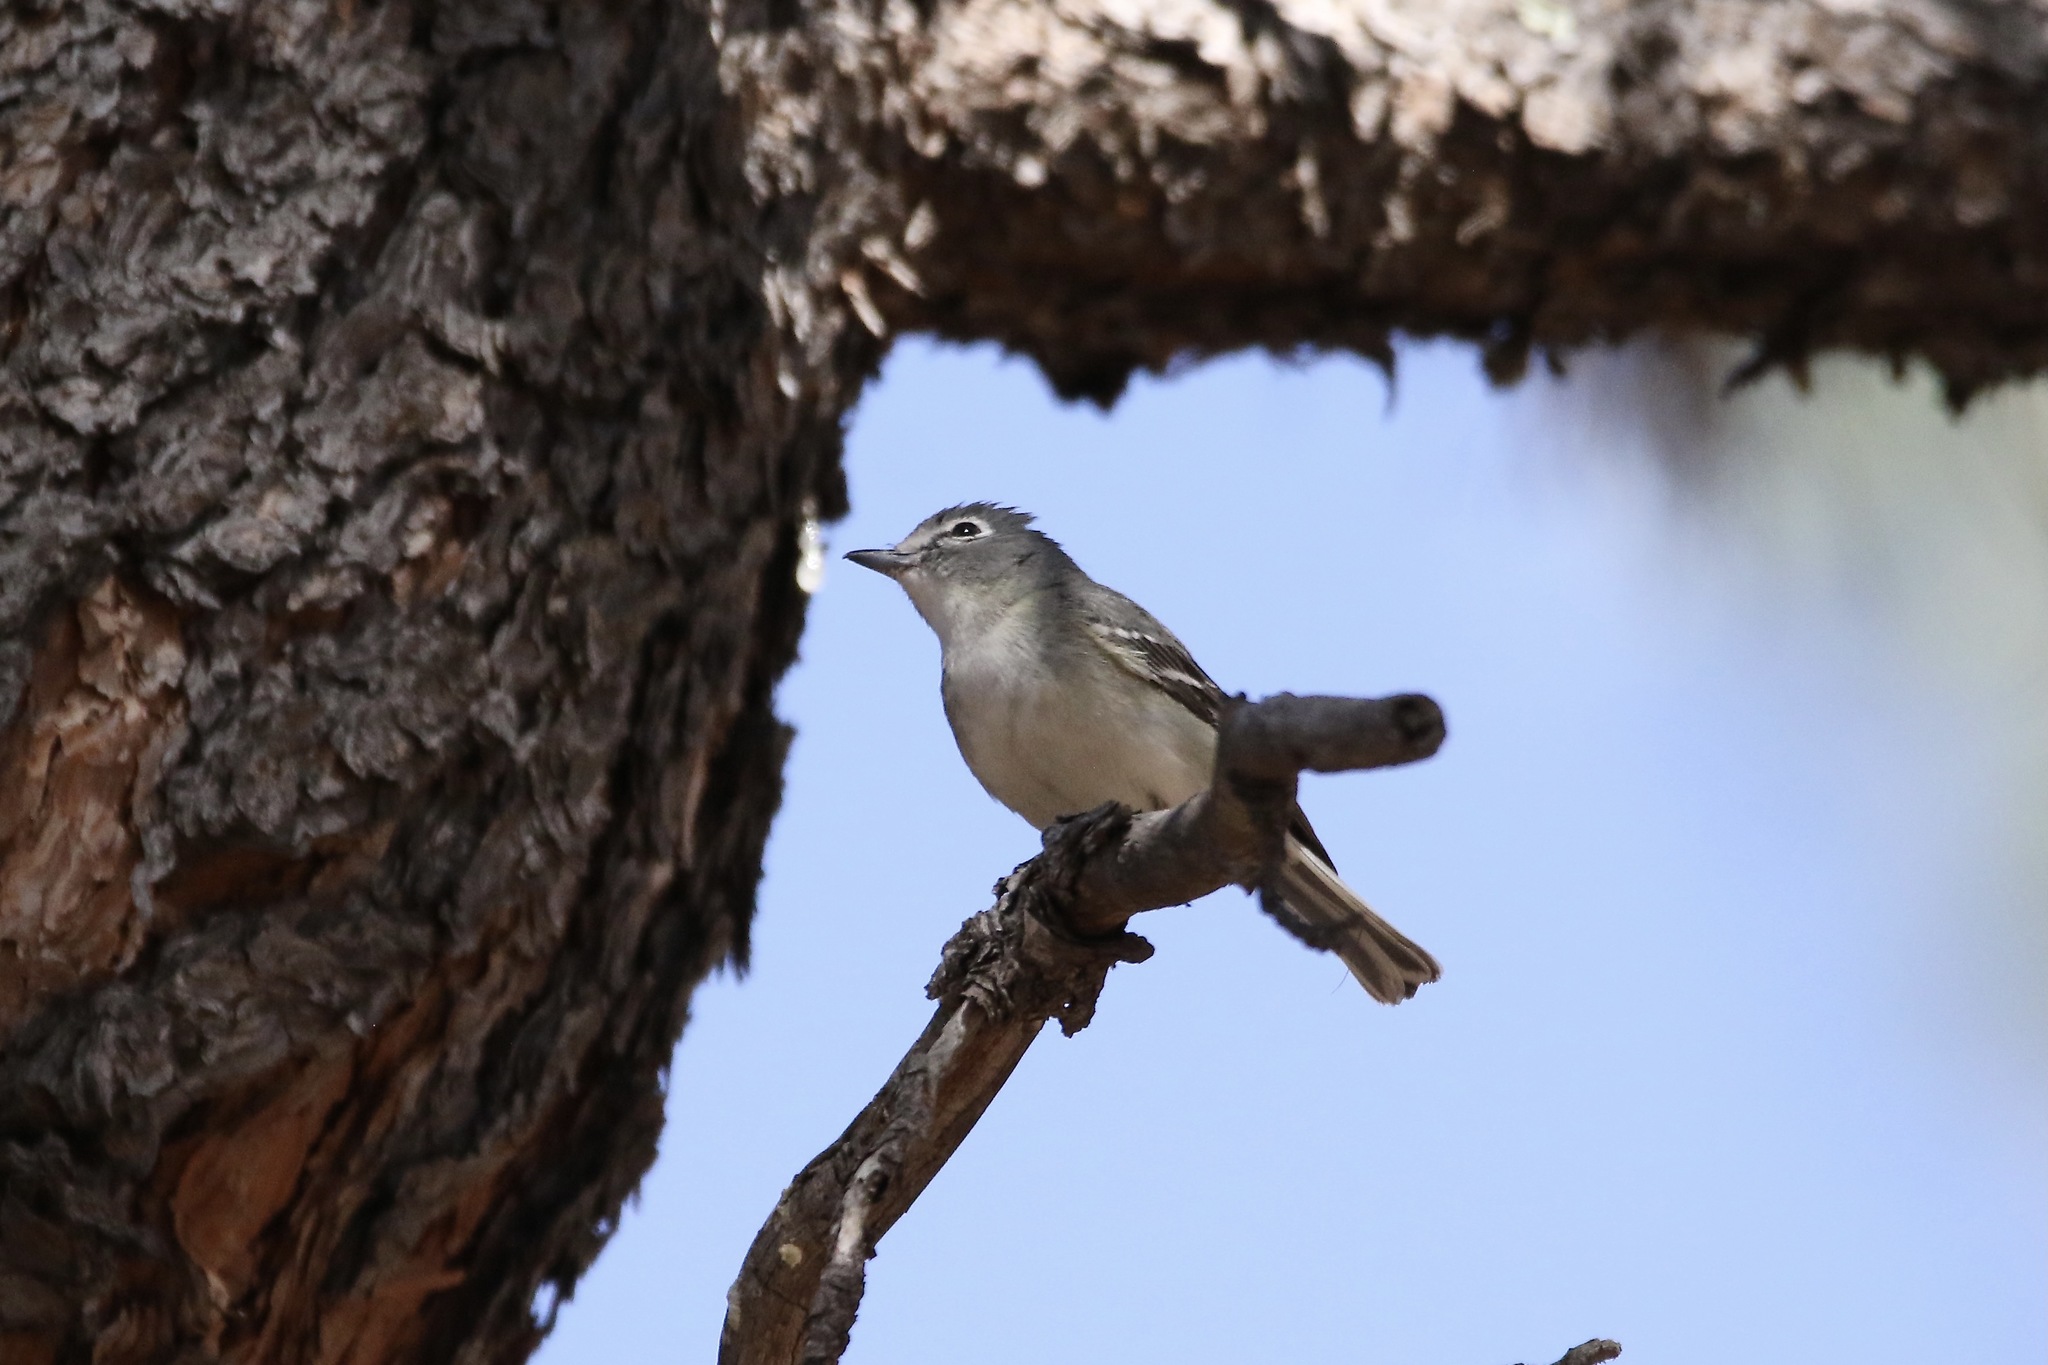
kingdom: Animalia
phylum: Chordata
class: Aves
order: Passeriformes
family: Vireonidae
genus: Vireo
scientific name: Vireo plumbeus
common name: Plumbeous vireo
